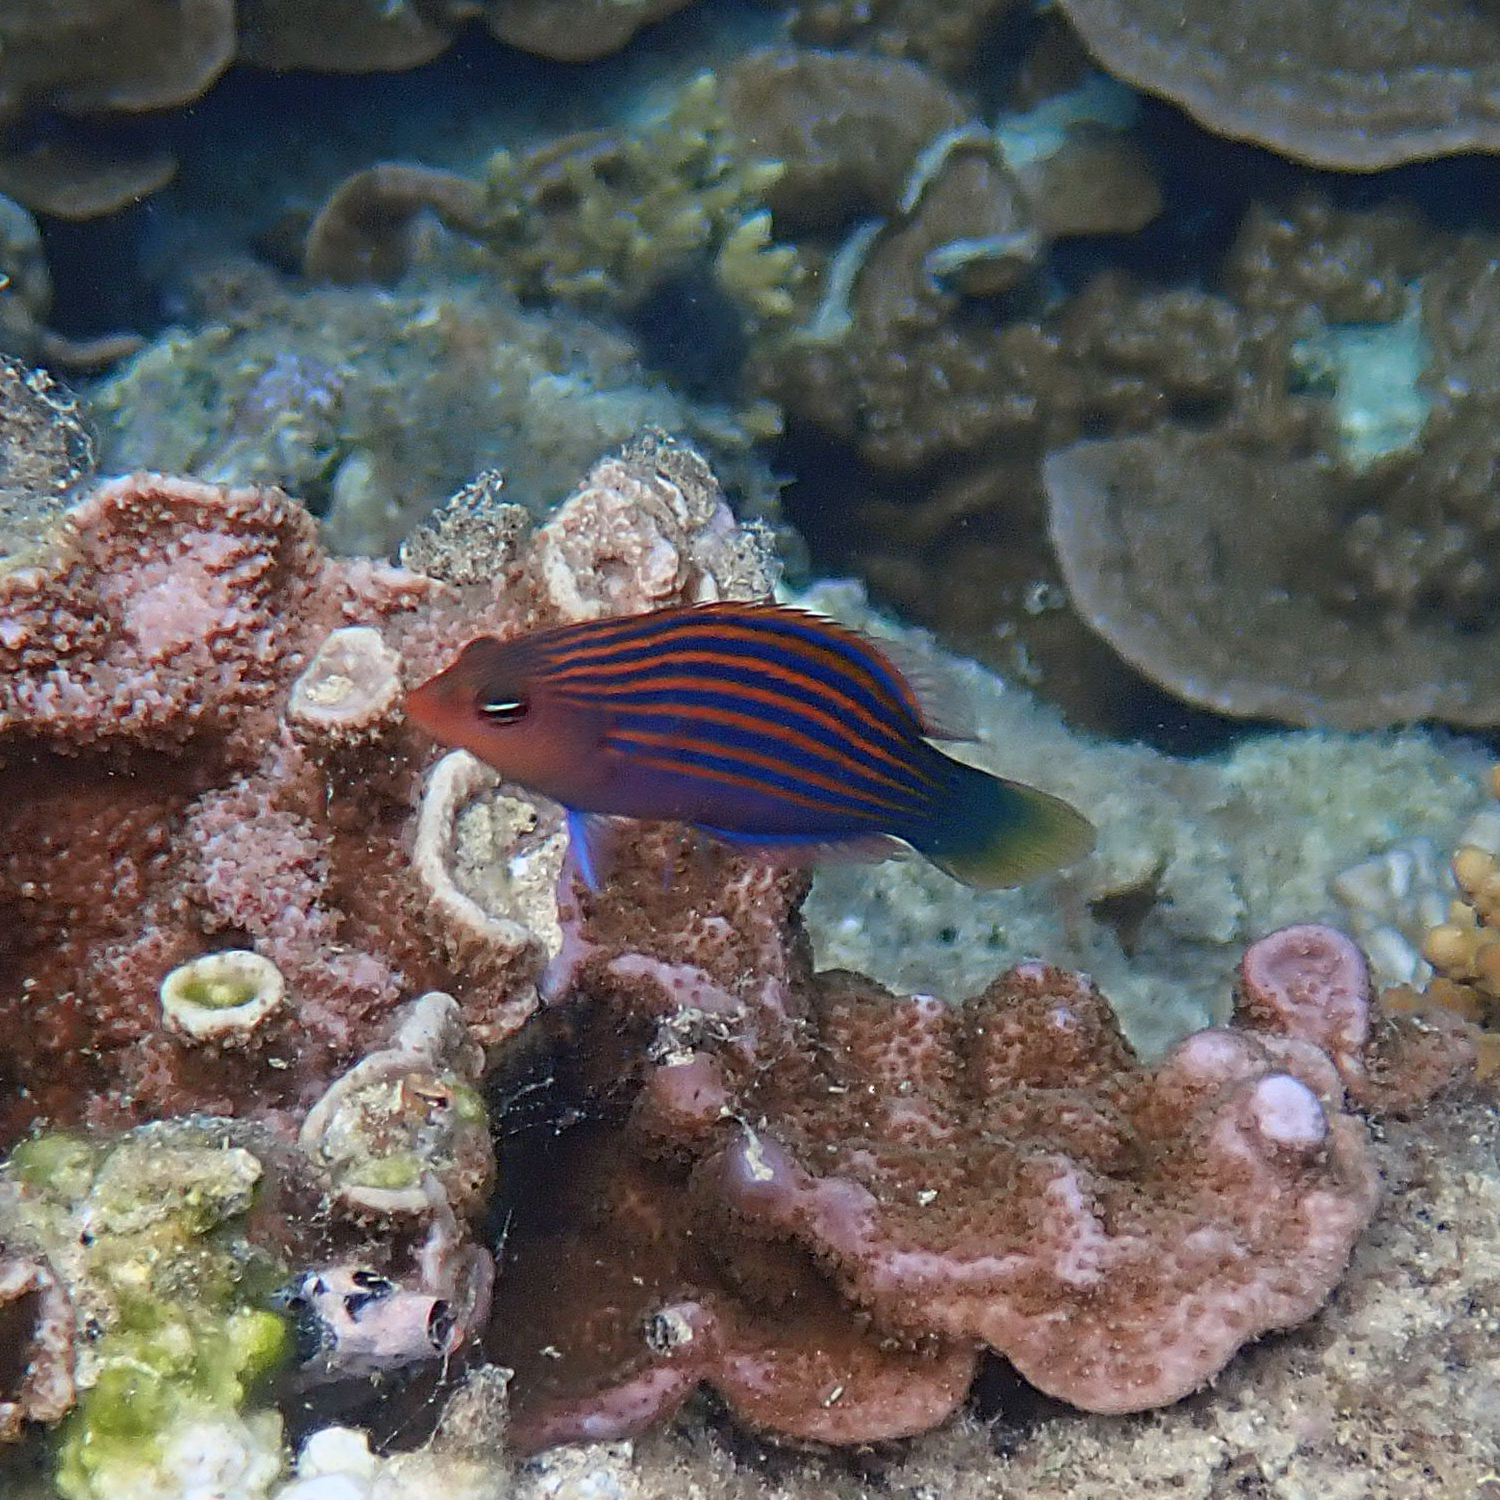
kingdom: Animalia
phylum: Chordata
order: Perciformes
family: Labridae
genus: Pseudocheilinus
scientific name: Pseudocheilinus hexataenia
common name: Sixline wrasse
